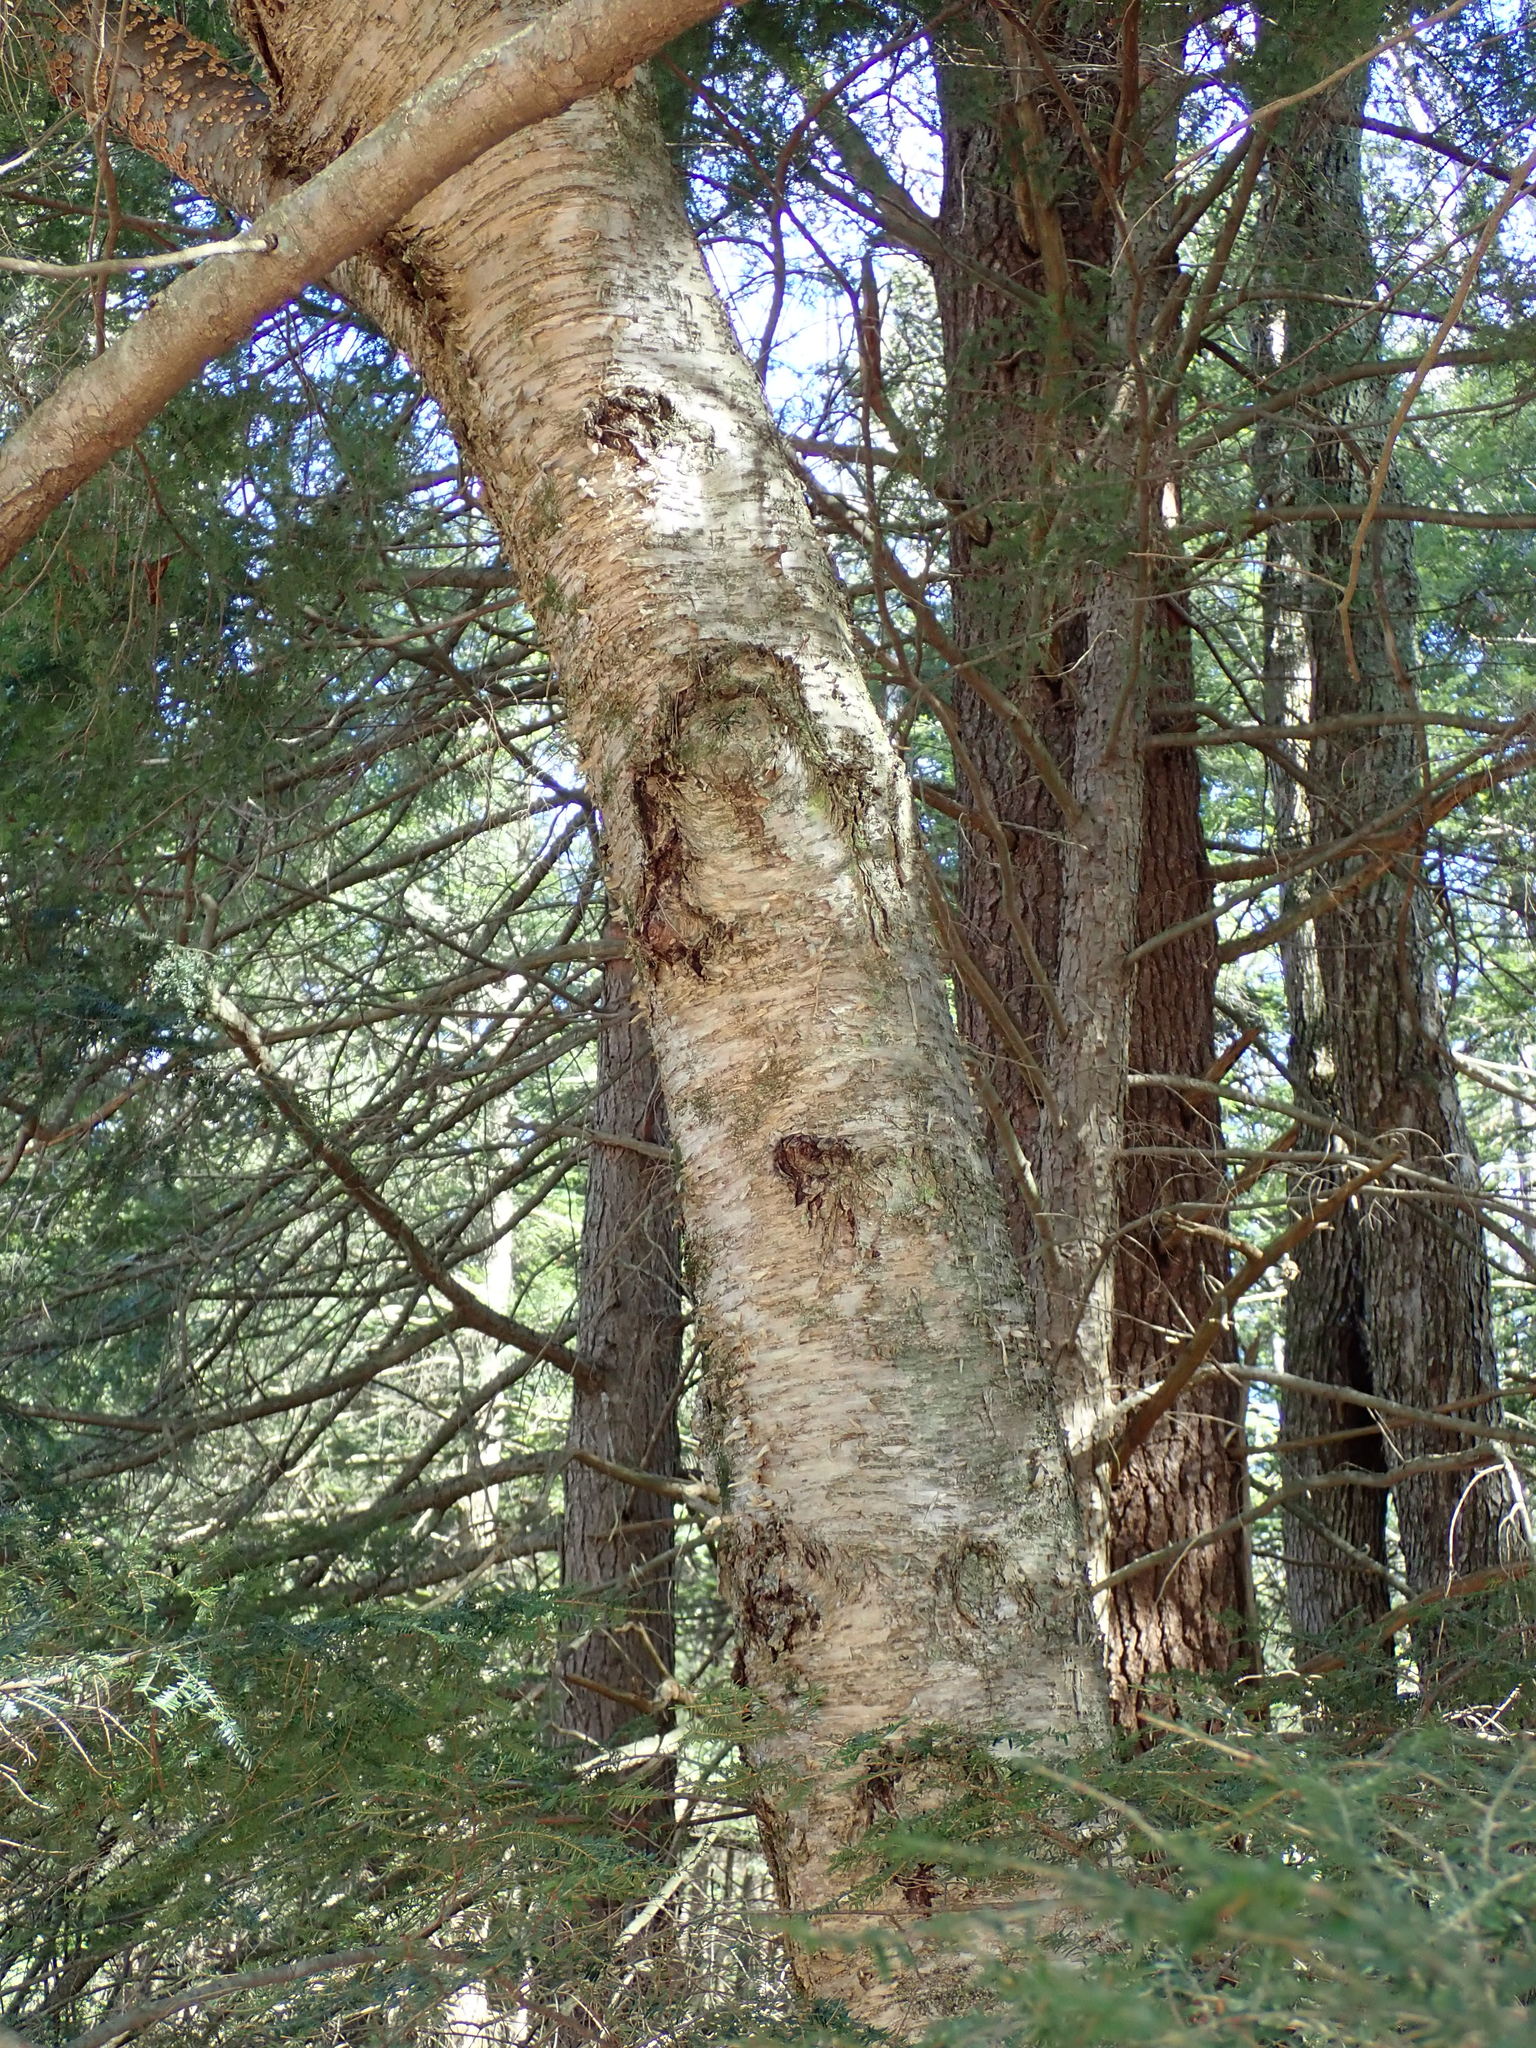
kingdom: Plantae
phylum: Tracheophyta
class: Magnoliopsida
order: Fagales
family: Betulaceae
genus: Betula
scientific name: Betula alleghaniensis
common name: Yellow birch
